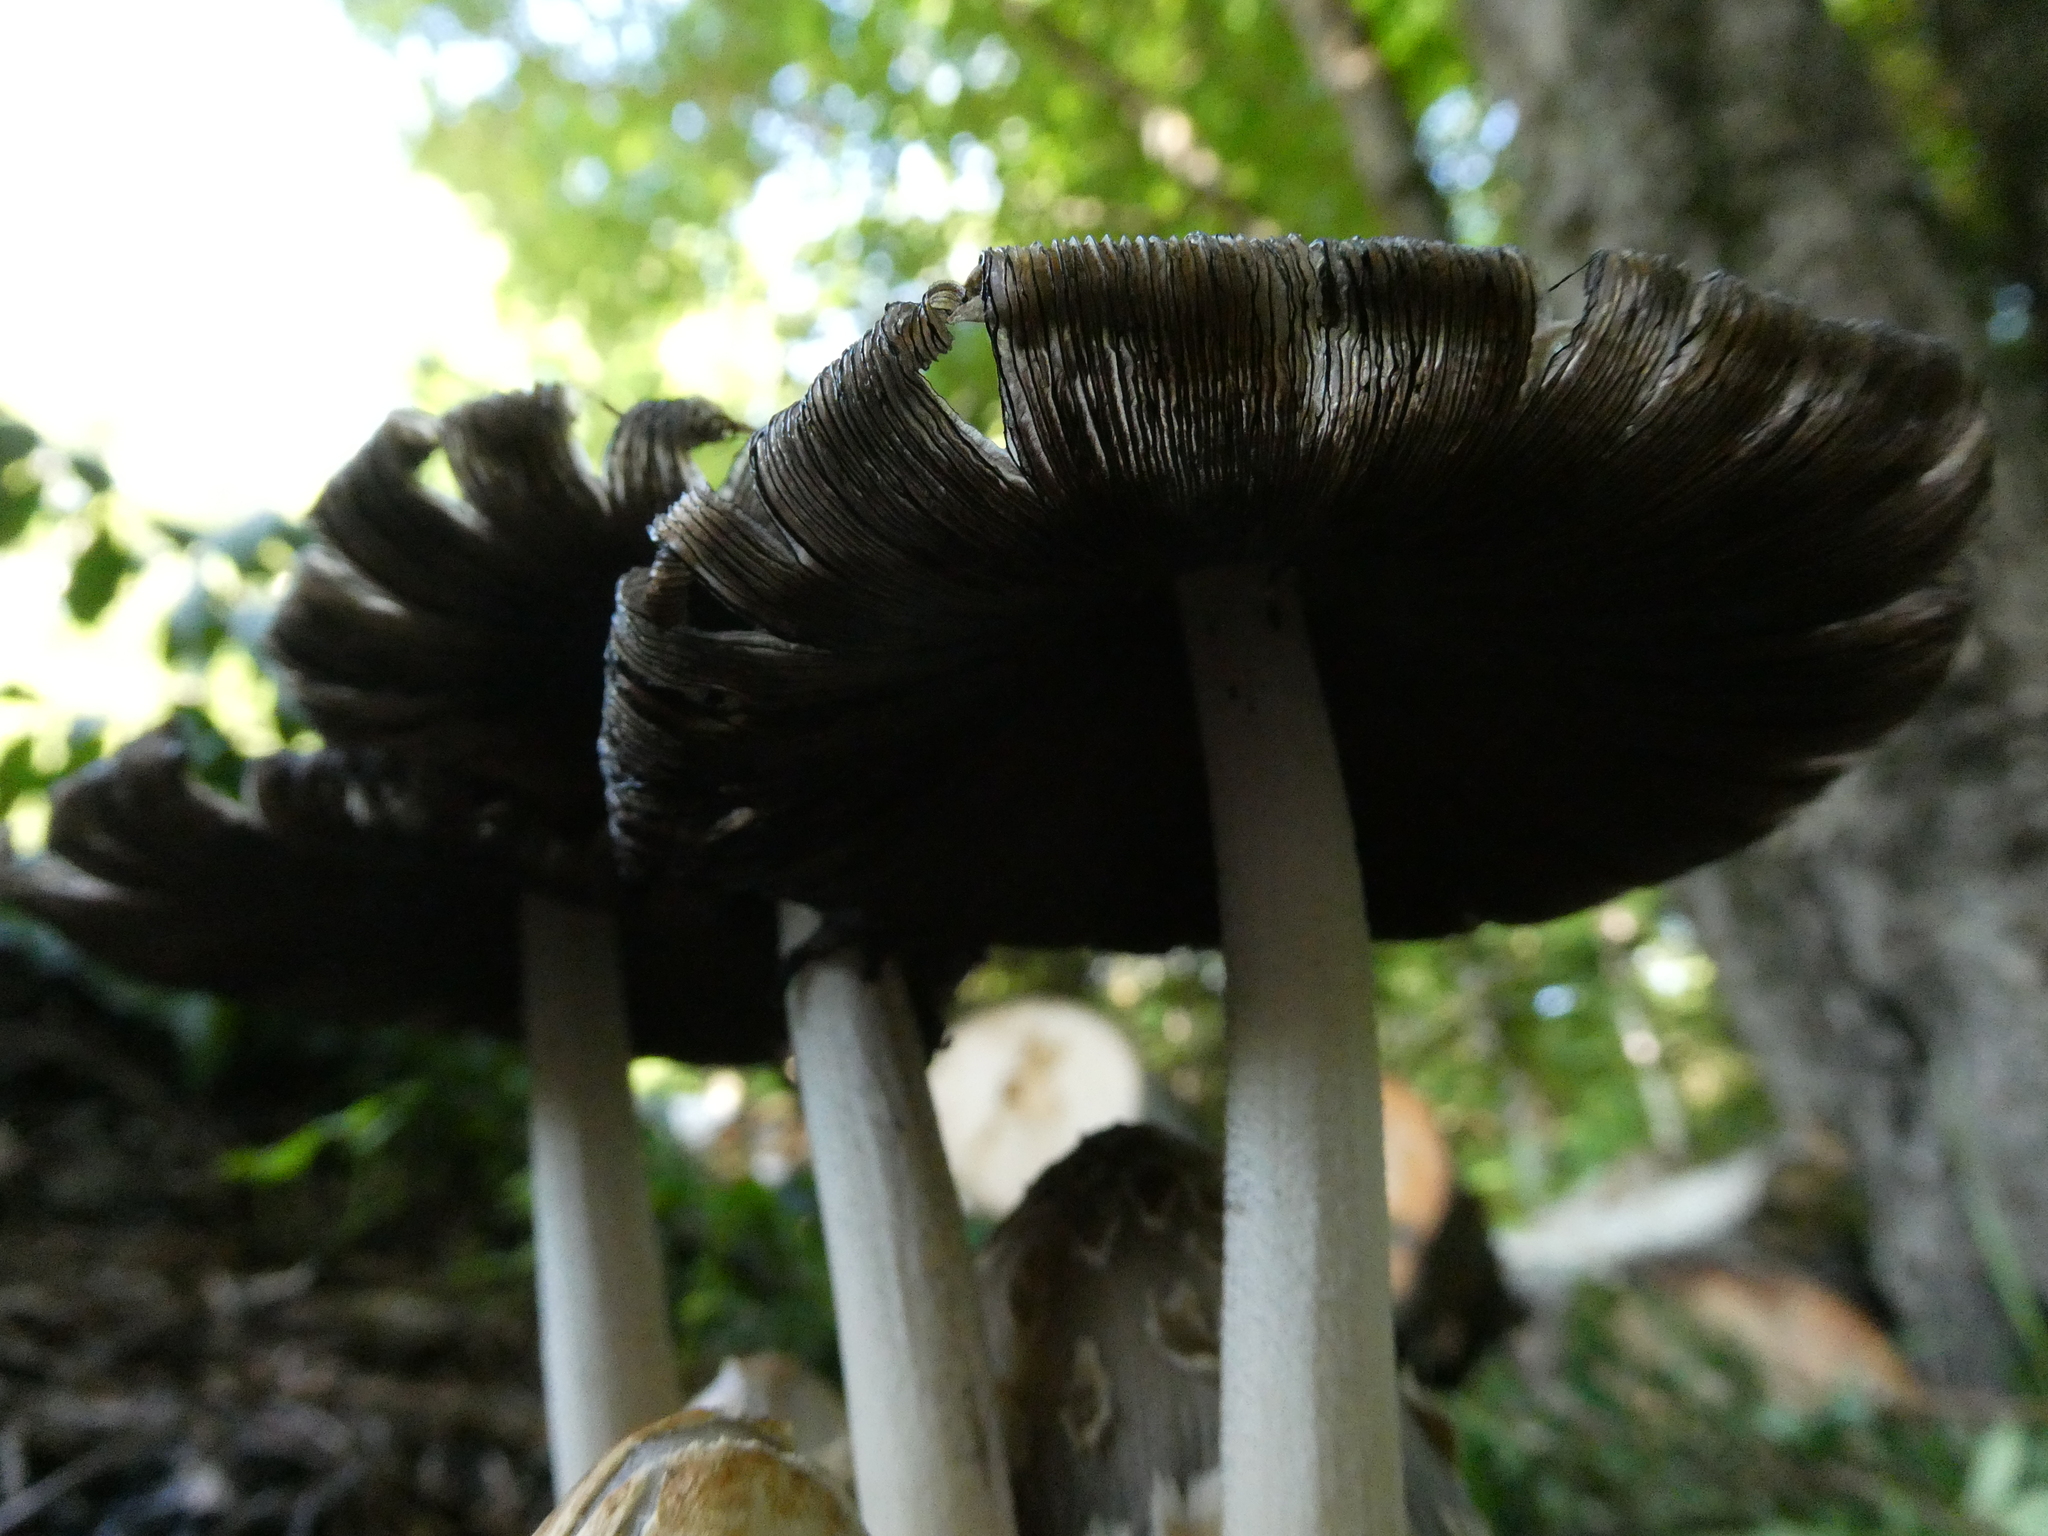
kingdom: Fungi
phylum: Basidiomycota
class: Agaricomycetes
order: Agaricales
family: Psathyrellaceae
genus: Coprinopsis
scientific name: Coprinopsis variegata
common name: Scaly ink cap
